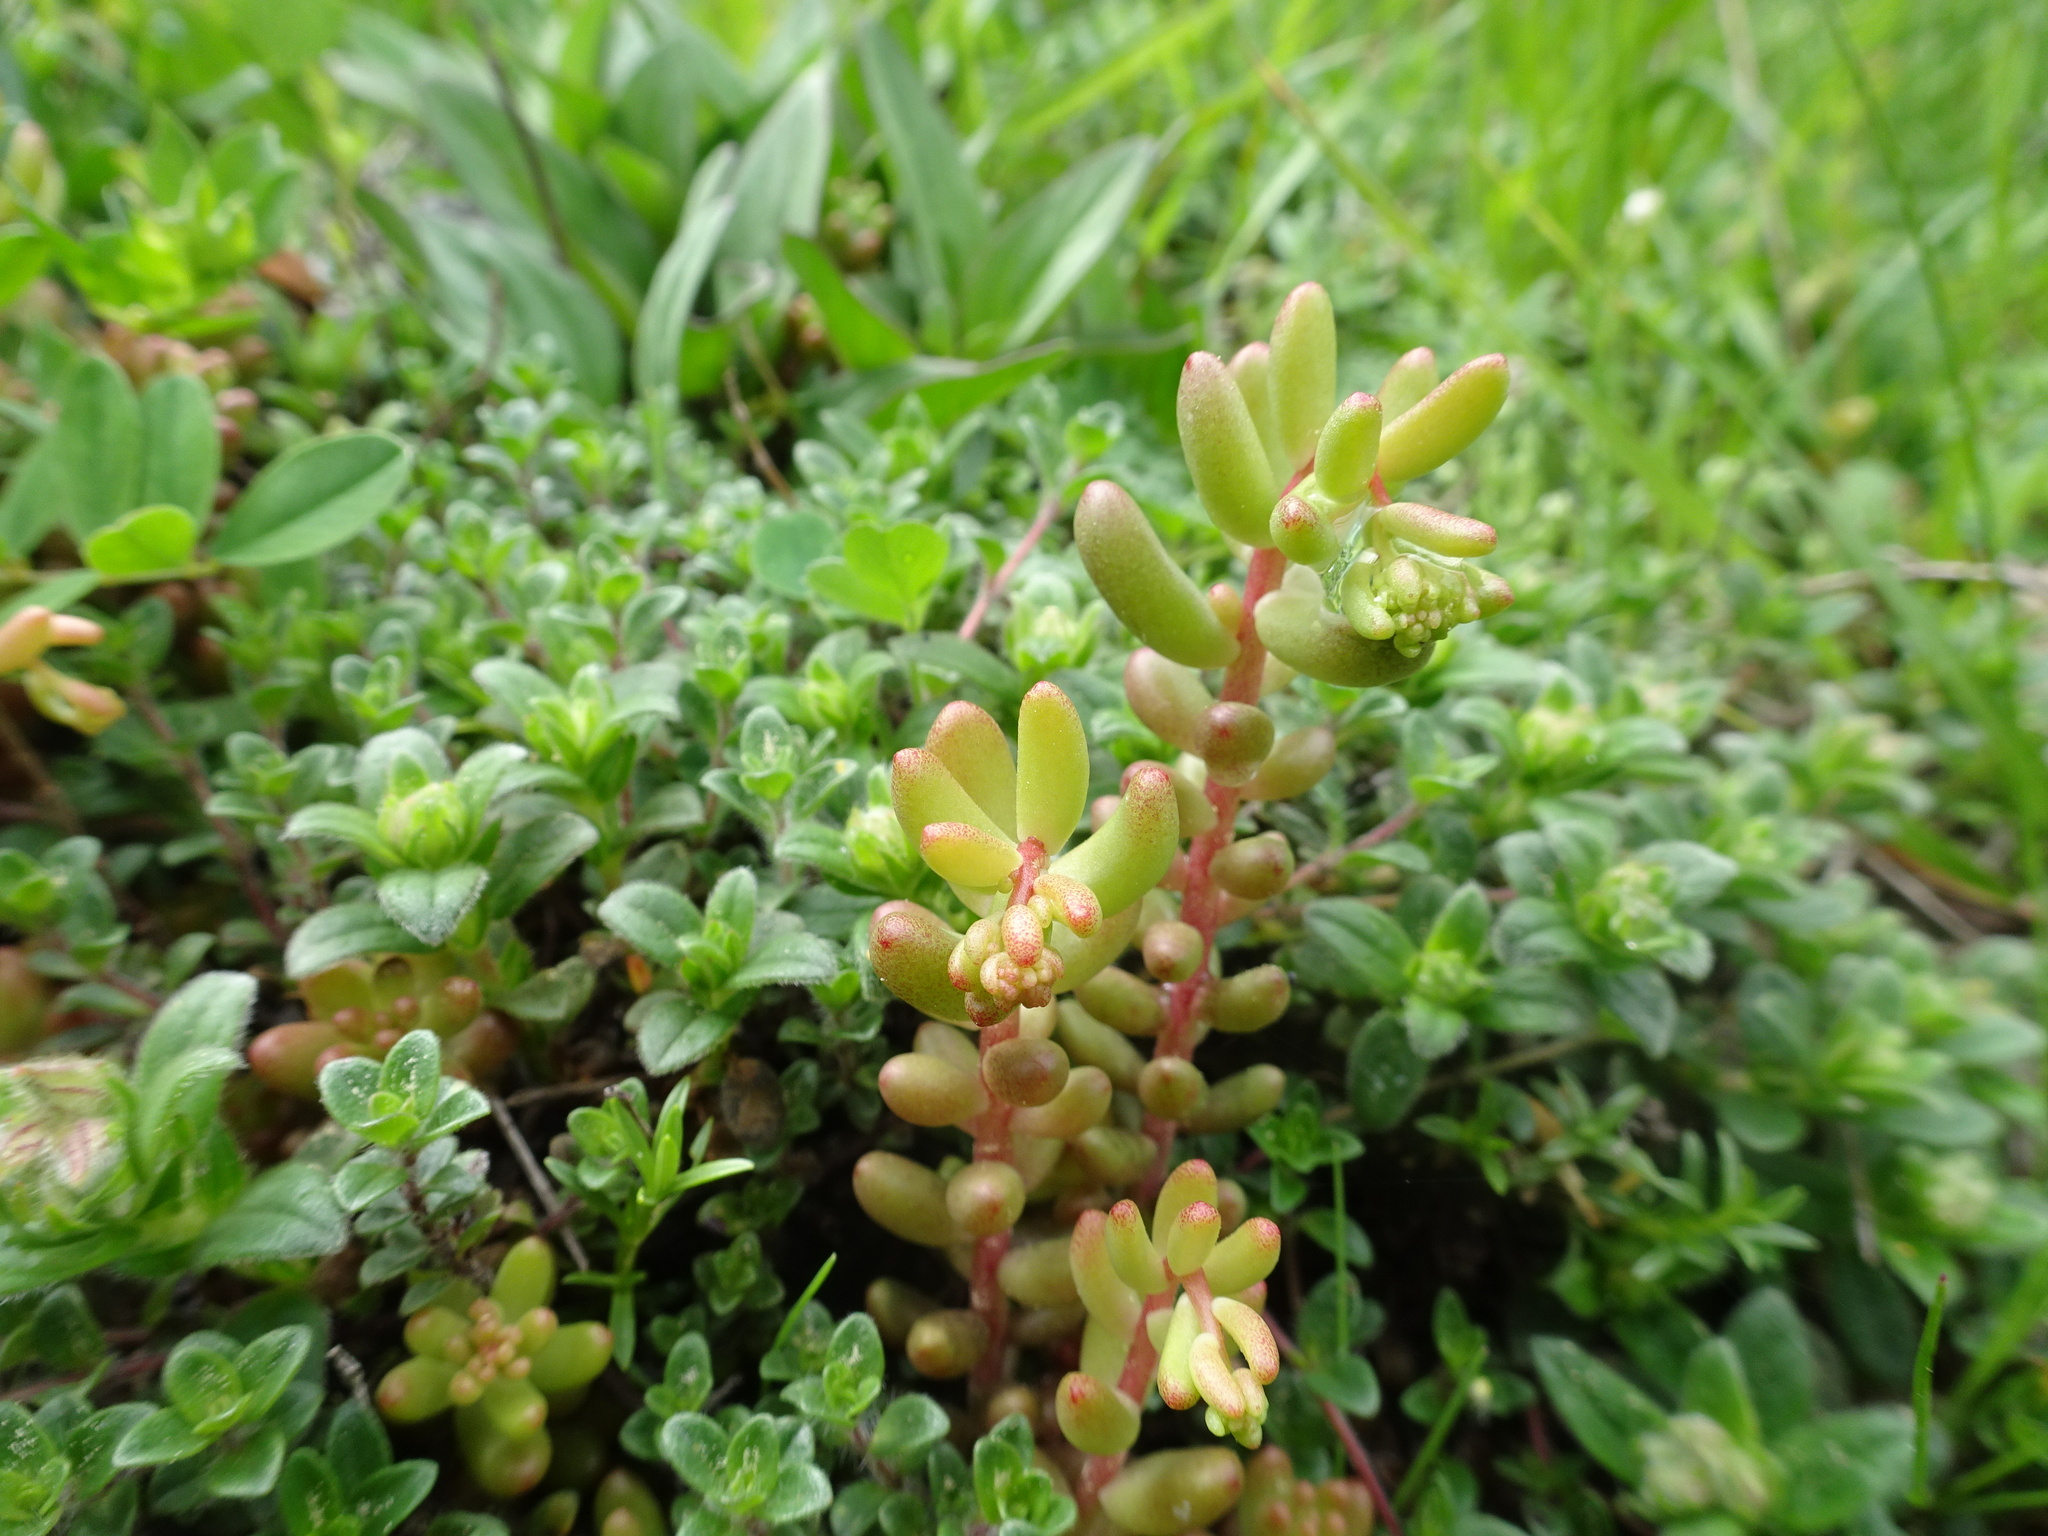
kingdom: Plantae
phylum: Tracheophyta
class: Magnoliopsida
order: Saxifragales
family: Crassulaceae
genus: Sedum
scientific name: Sedum album
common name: White stonecrop
